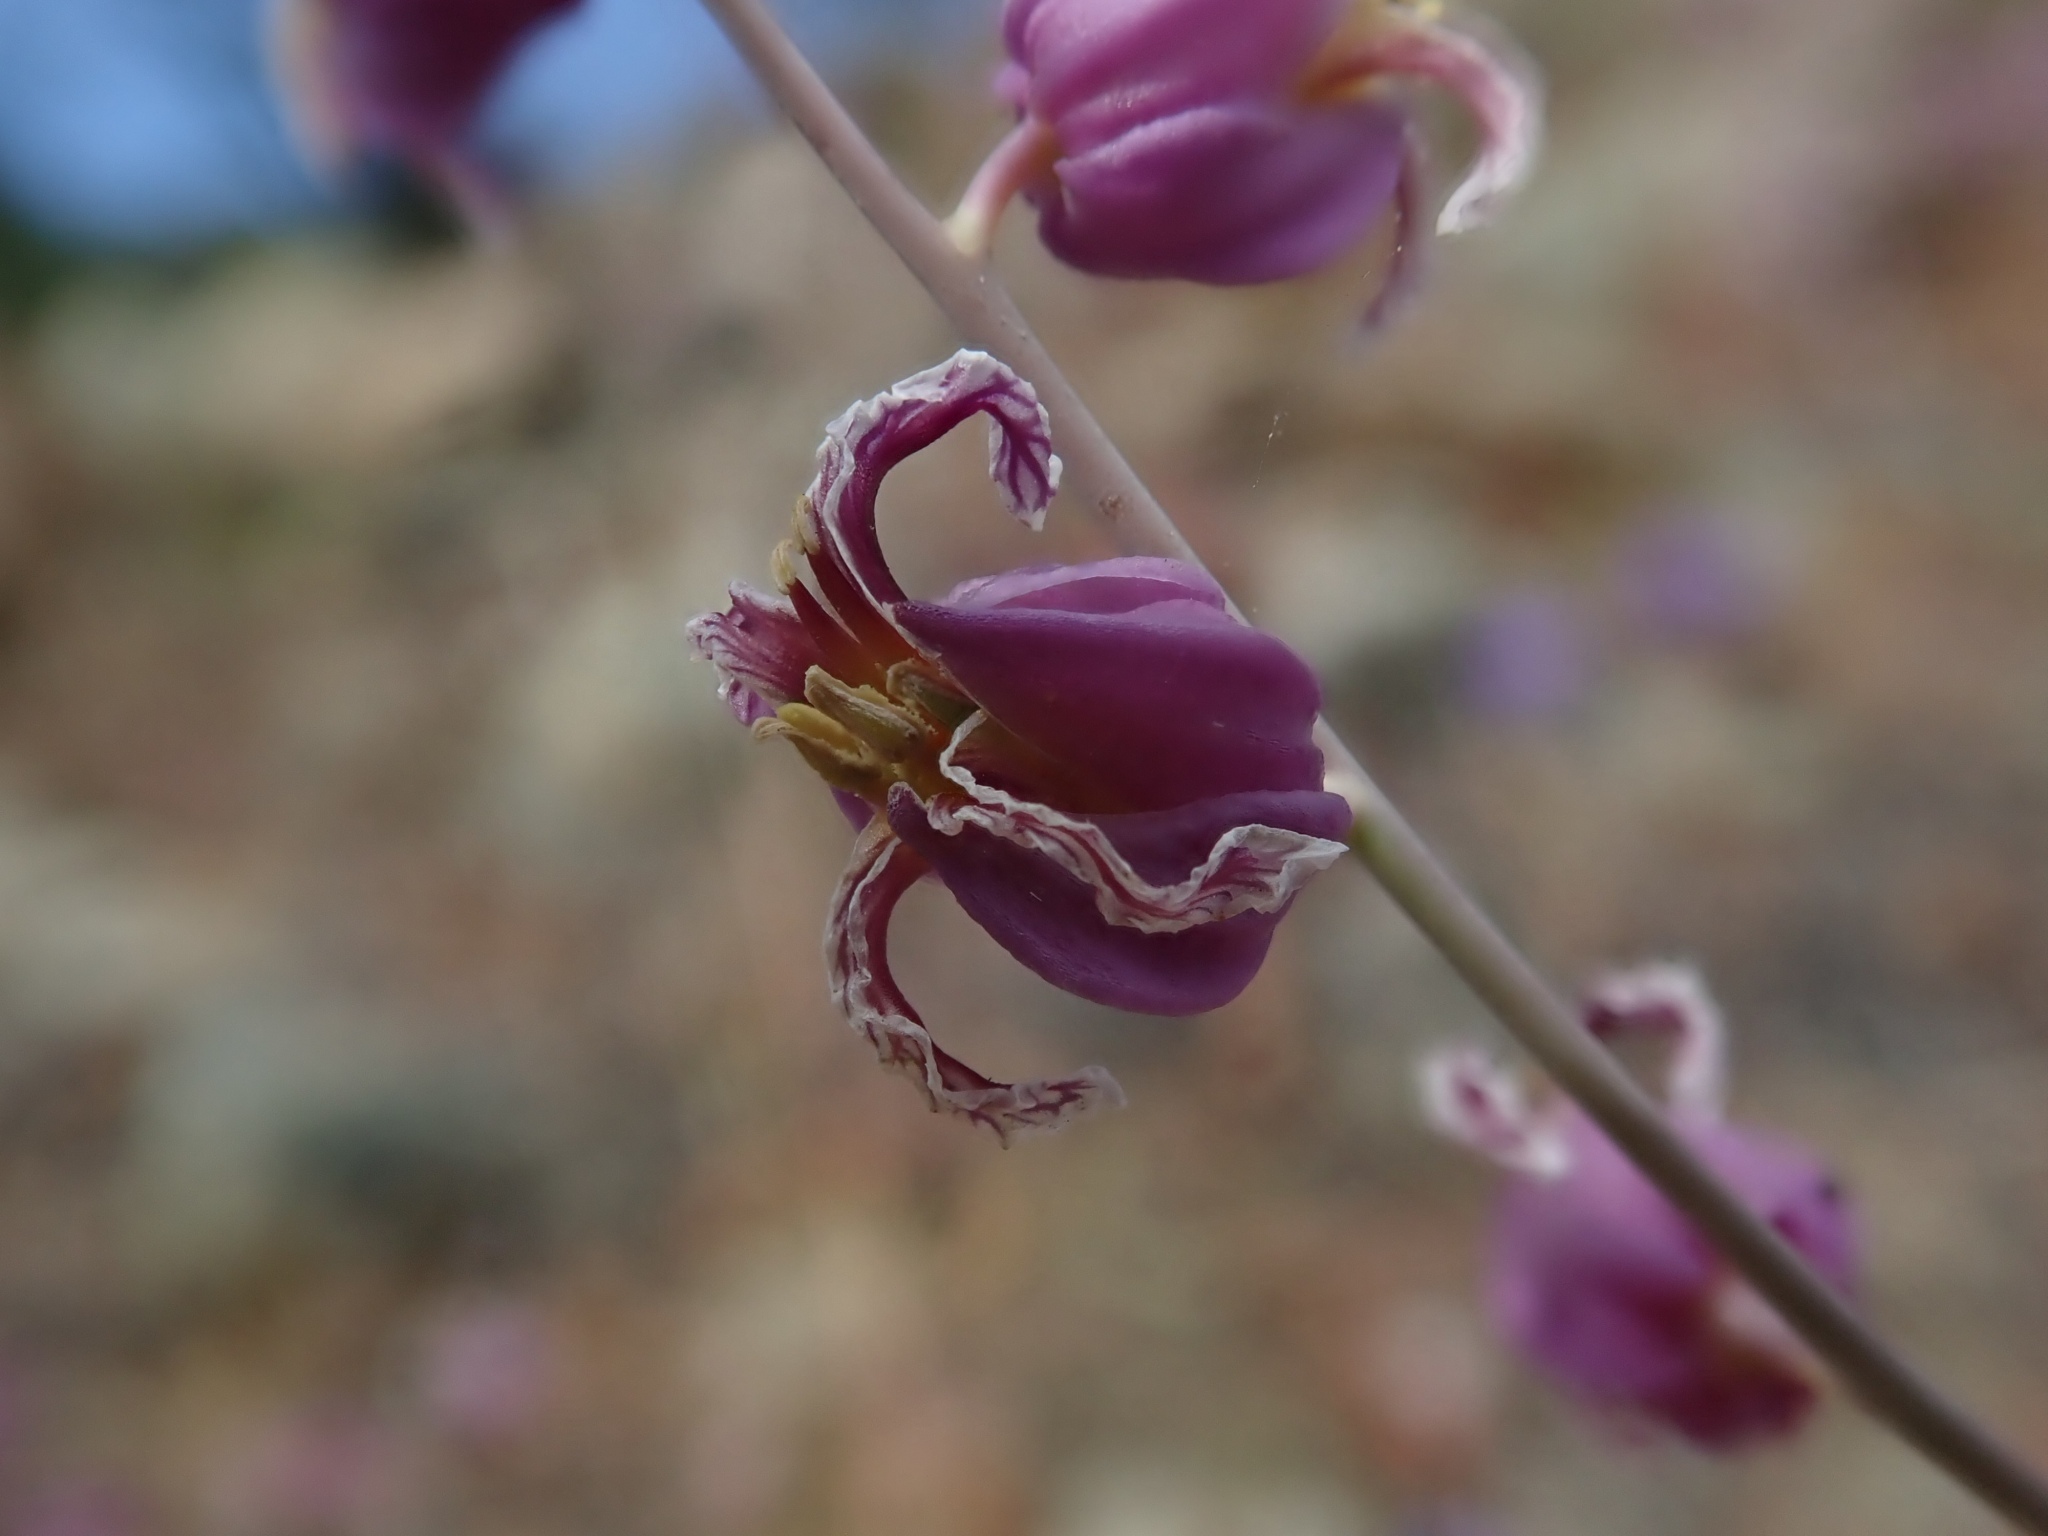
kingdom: Plantae
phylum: Tracheophyta
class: Magnoliopsida
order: Brassicales
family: Brassicaceae
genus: Streptanthus
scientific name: Streptanthus glandulosus
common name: Jewel-flower
